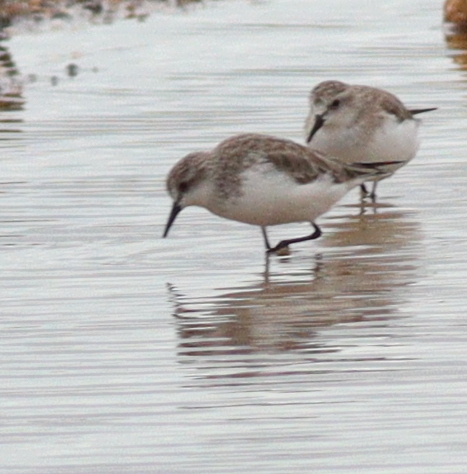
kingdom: Animalia
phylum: Chordata
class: Aves
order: Charadriiformes
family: Scolopacidae
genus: Calidris
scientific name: Calidris ruficollis
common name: Red-necked stint
